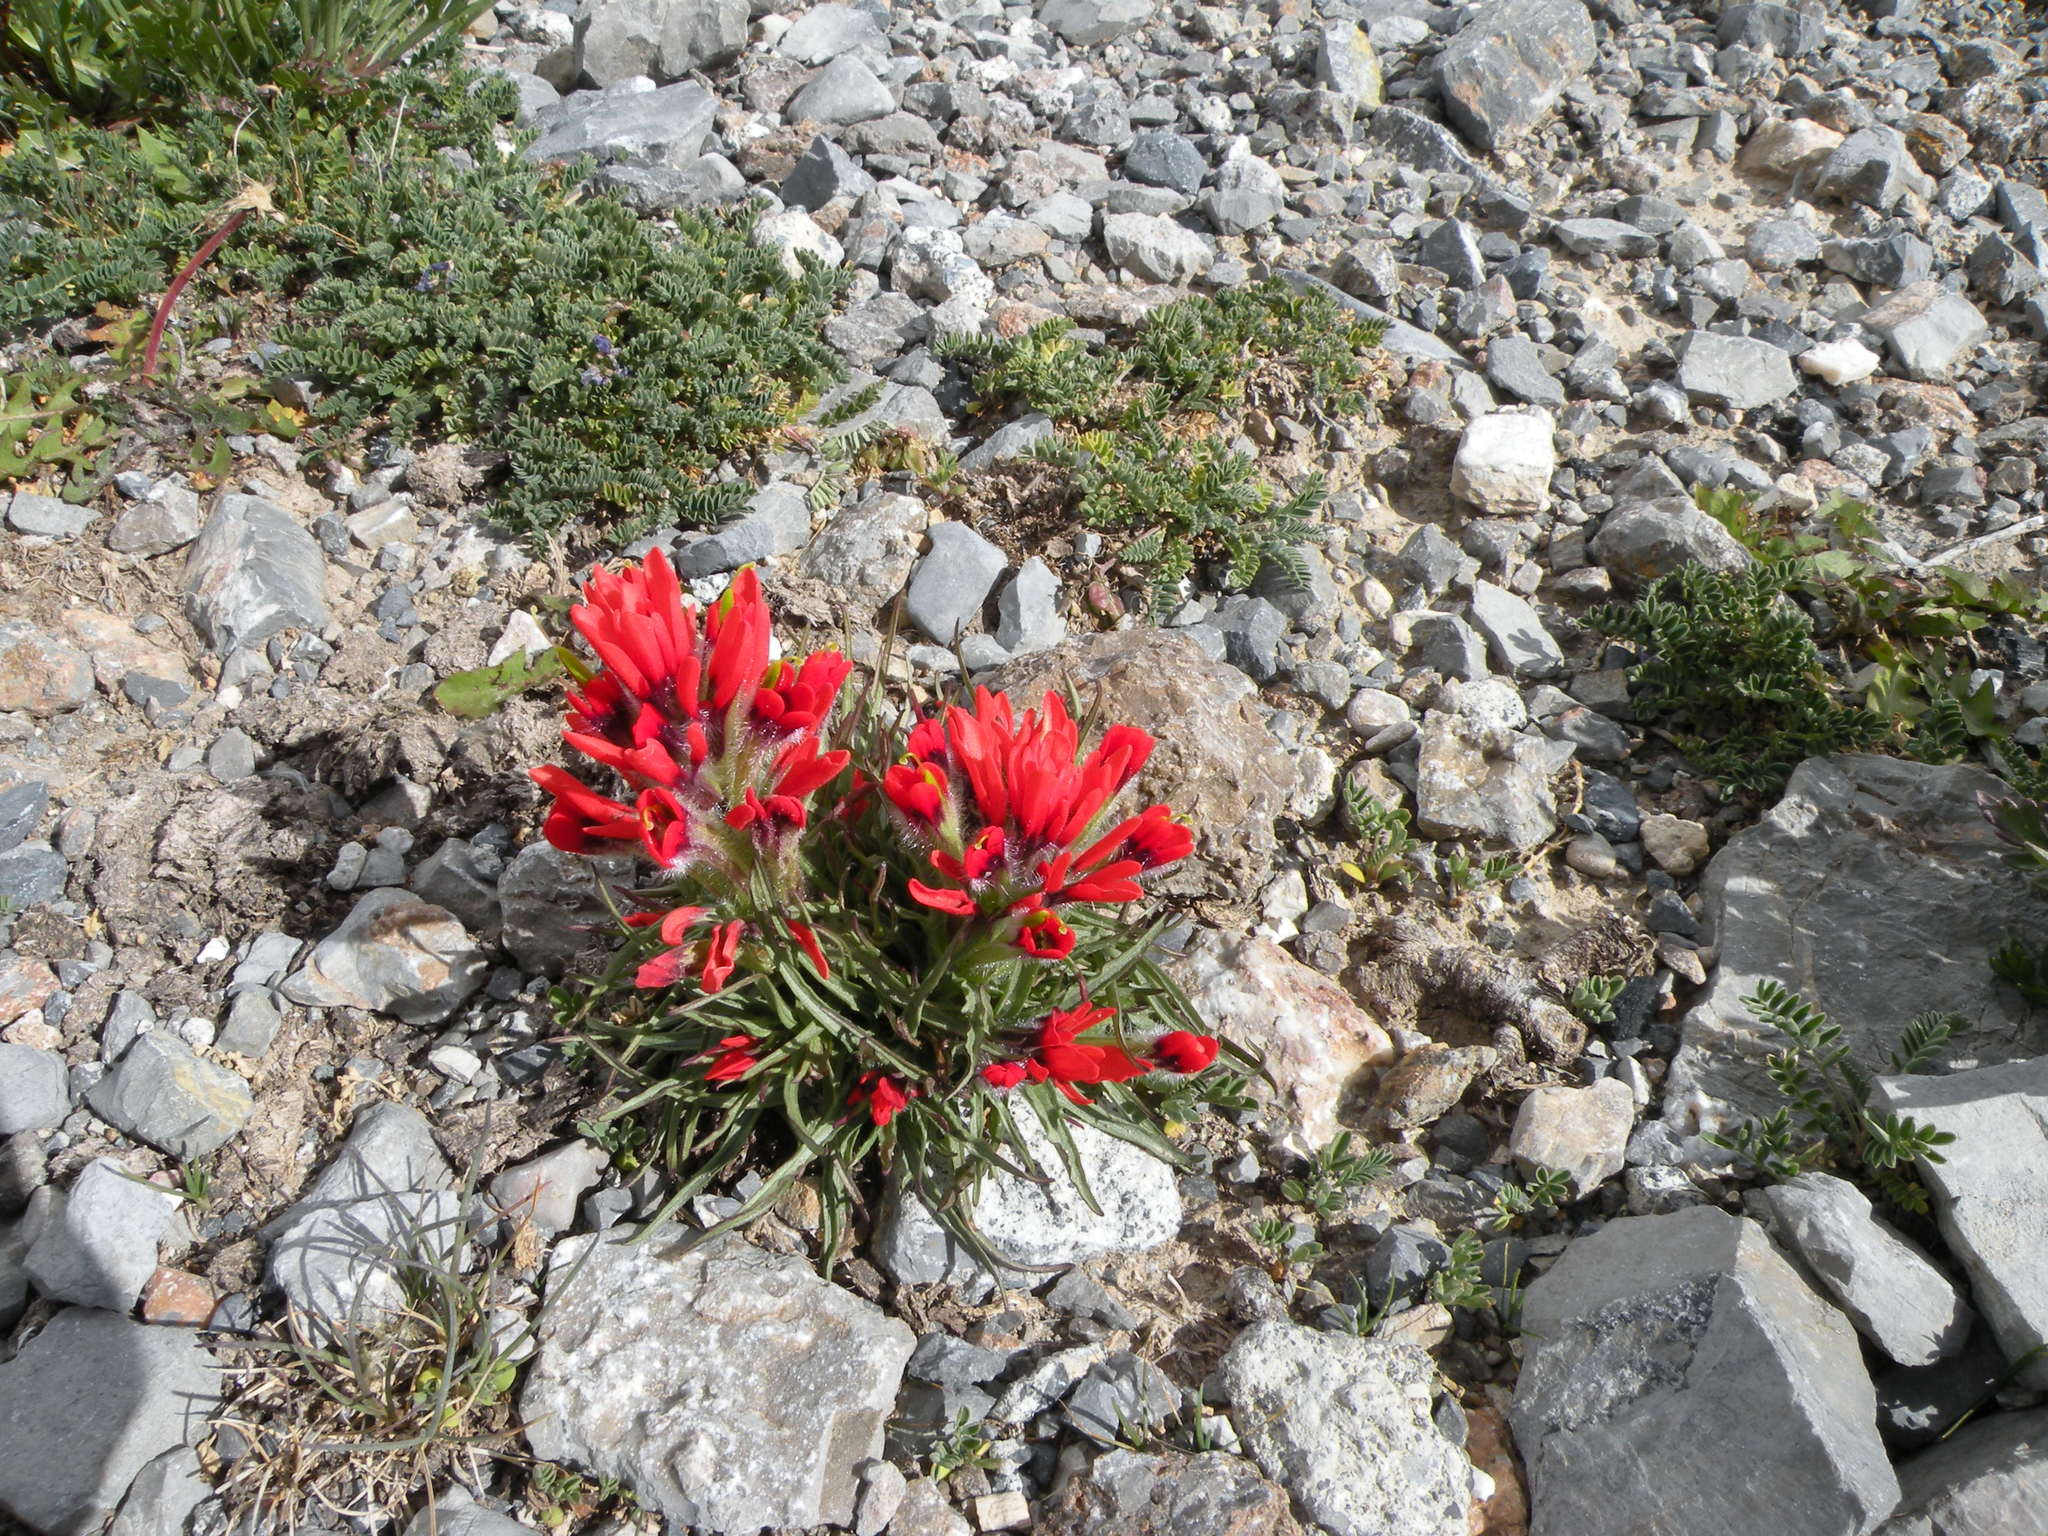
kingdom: Plantae
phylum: Tracheophyta
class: Magnoliopsida
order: Lamiales
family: Orobanchaceae
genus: Castilleja
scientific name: Castilleja bella
